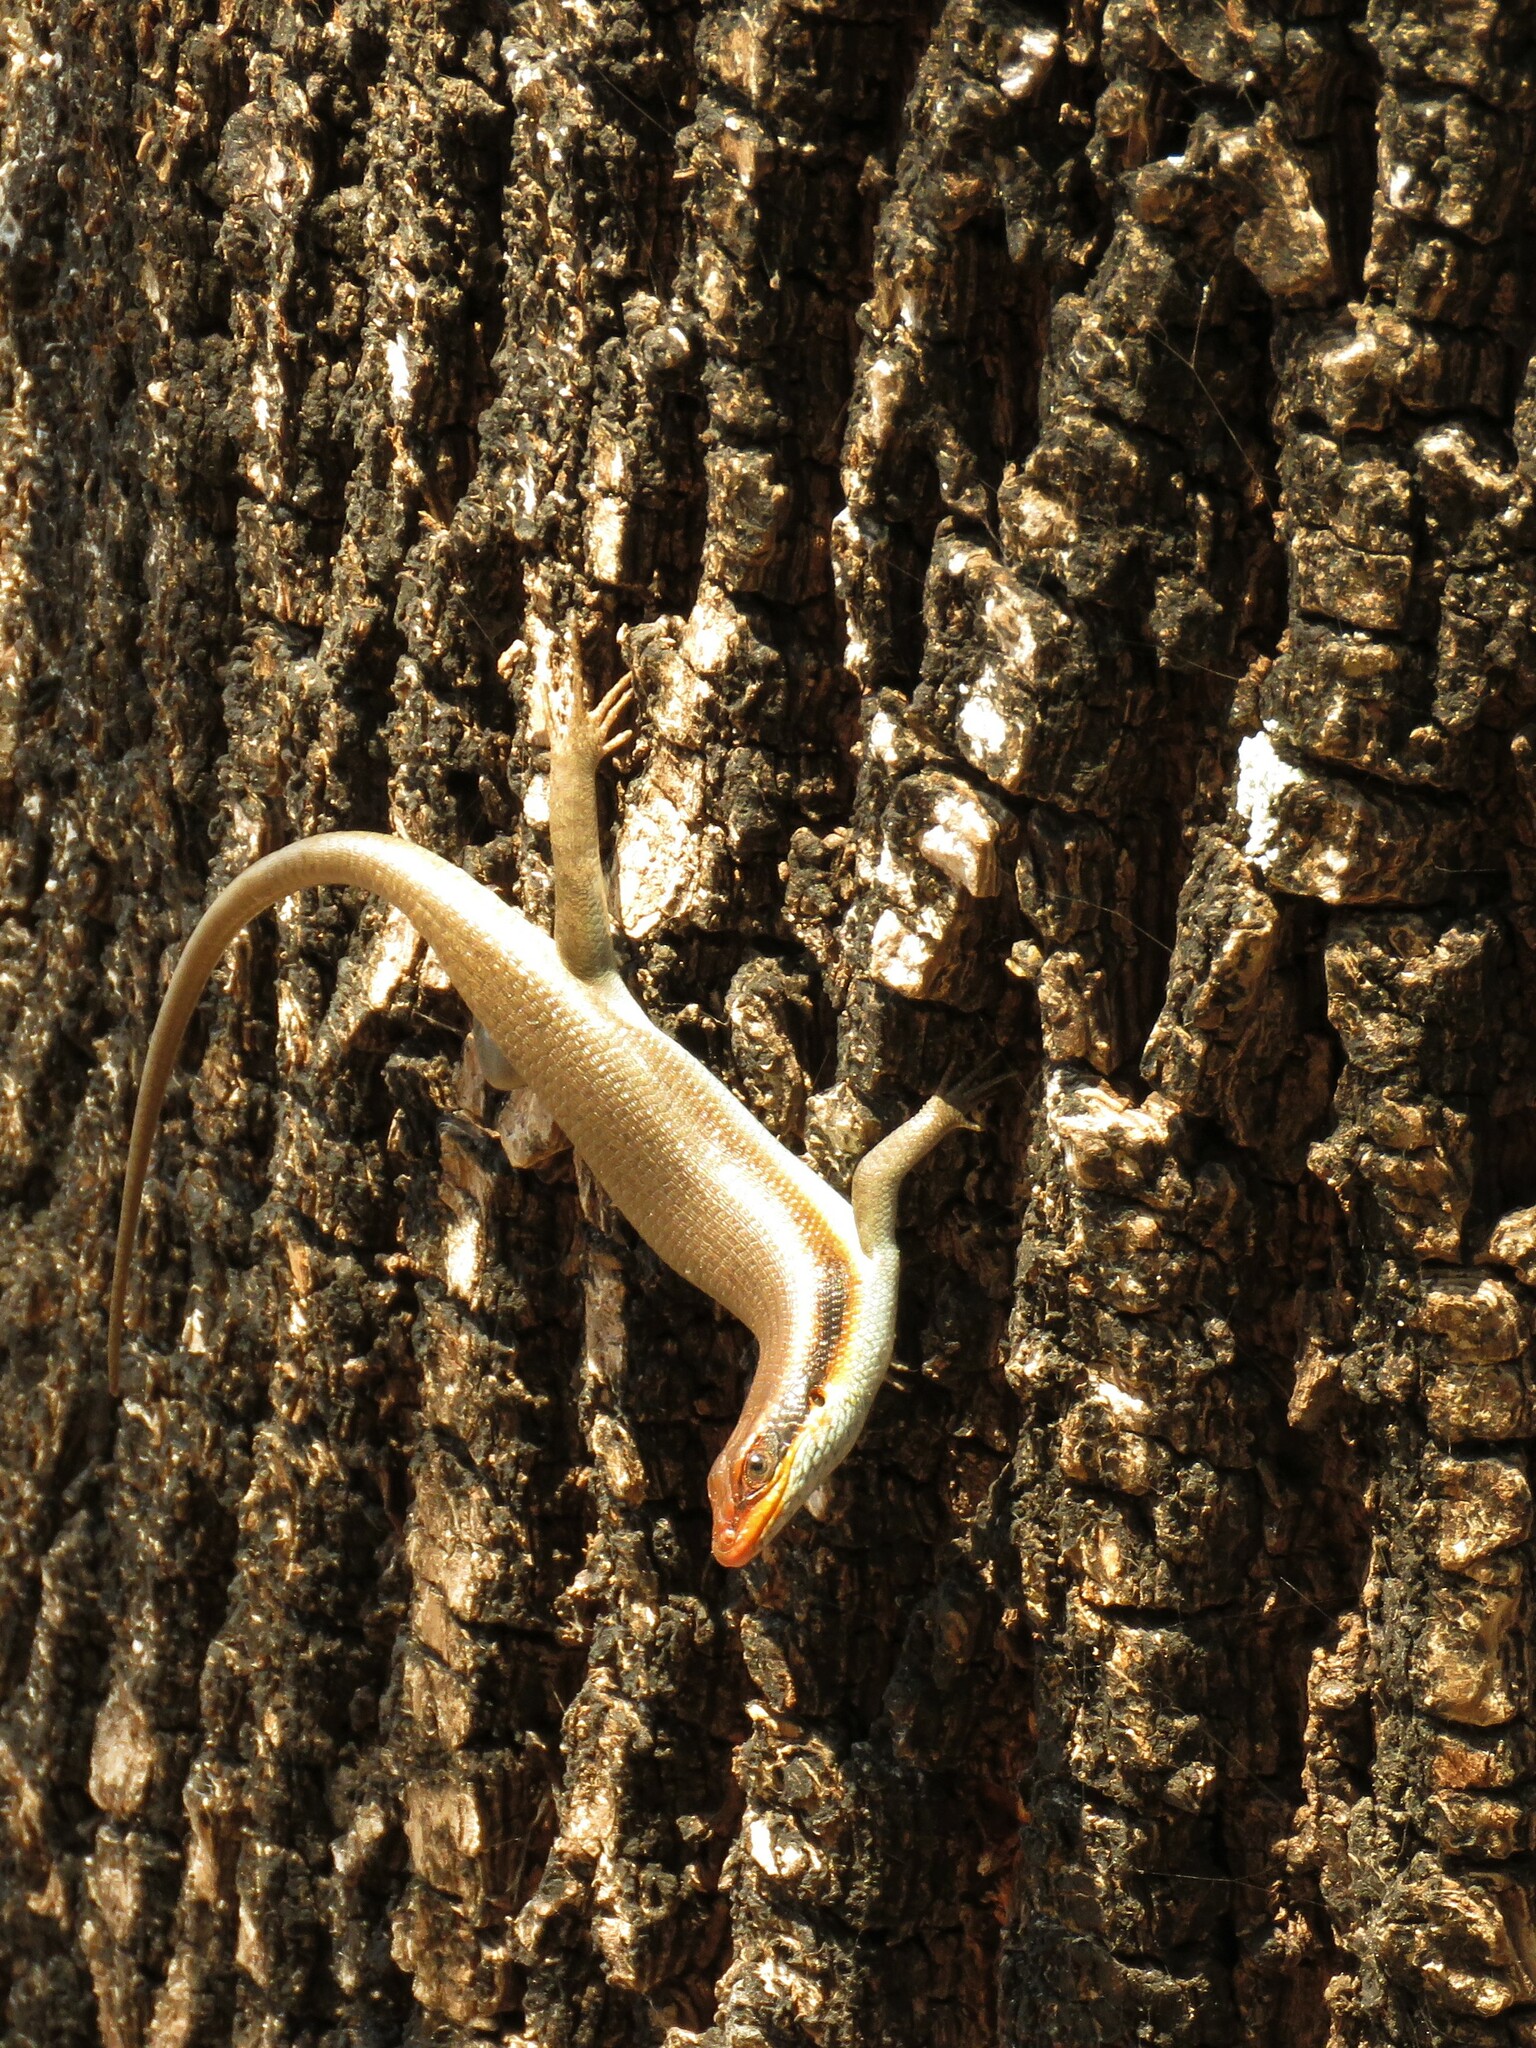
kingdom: Animalia
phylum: Chordata
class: Squamata
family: Scincidae
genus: Trachylepis
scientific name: Trachylepis wahlbergii
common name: Wahlberg’s striped skink
